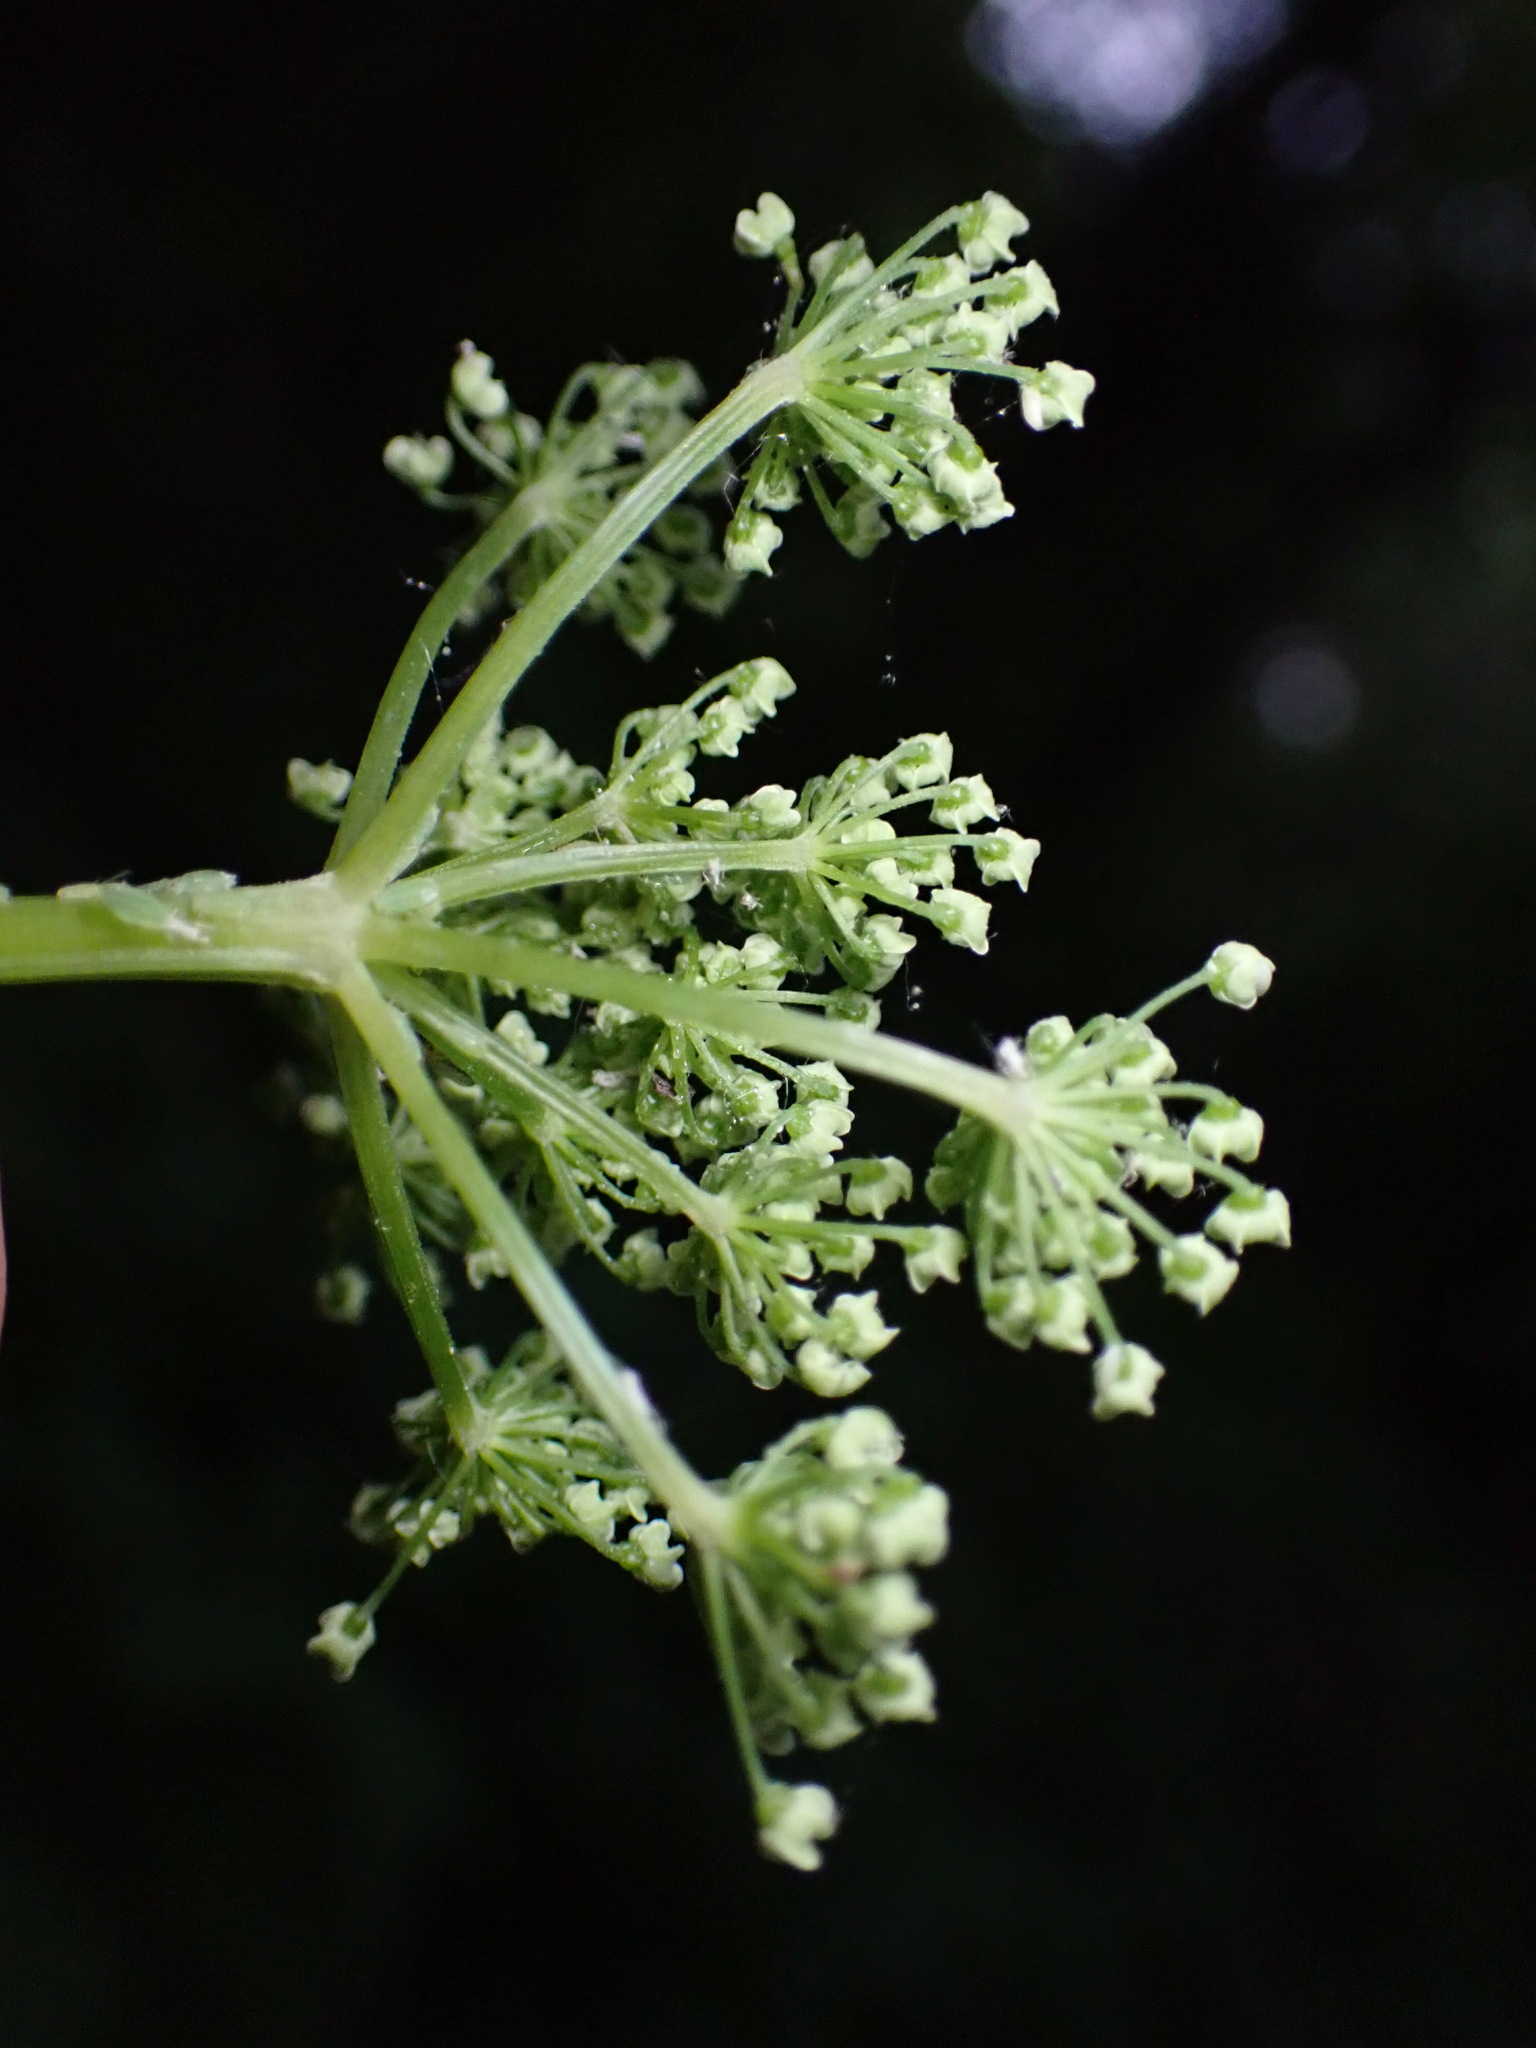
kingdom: Plantae
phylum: Tracheophyta
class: Magnoliopsida
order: Apiales
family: Apiaceae
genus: Aegopodium
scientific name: Aegopodium podagraria
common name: Ground-elder
